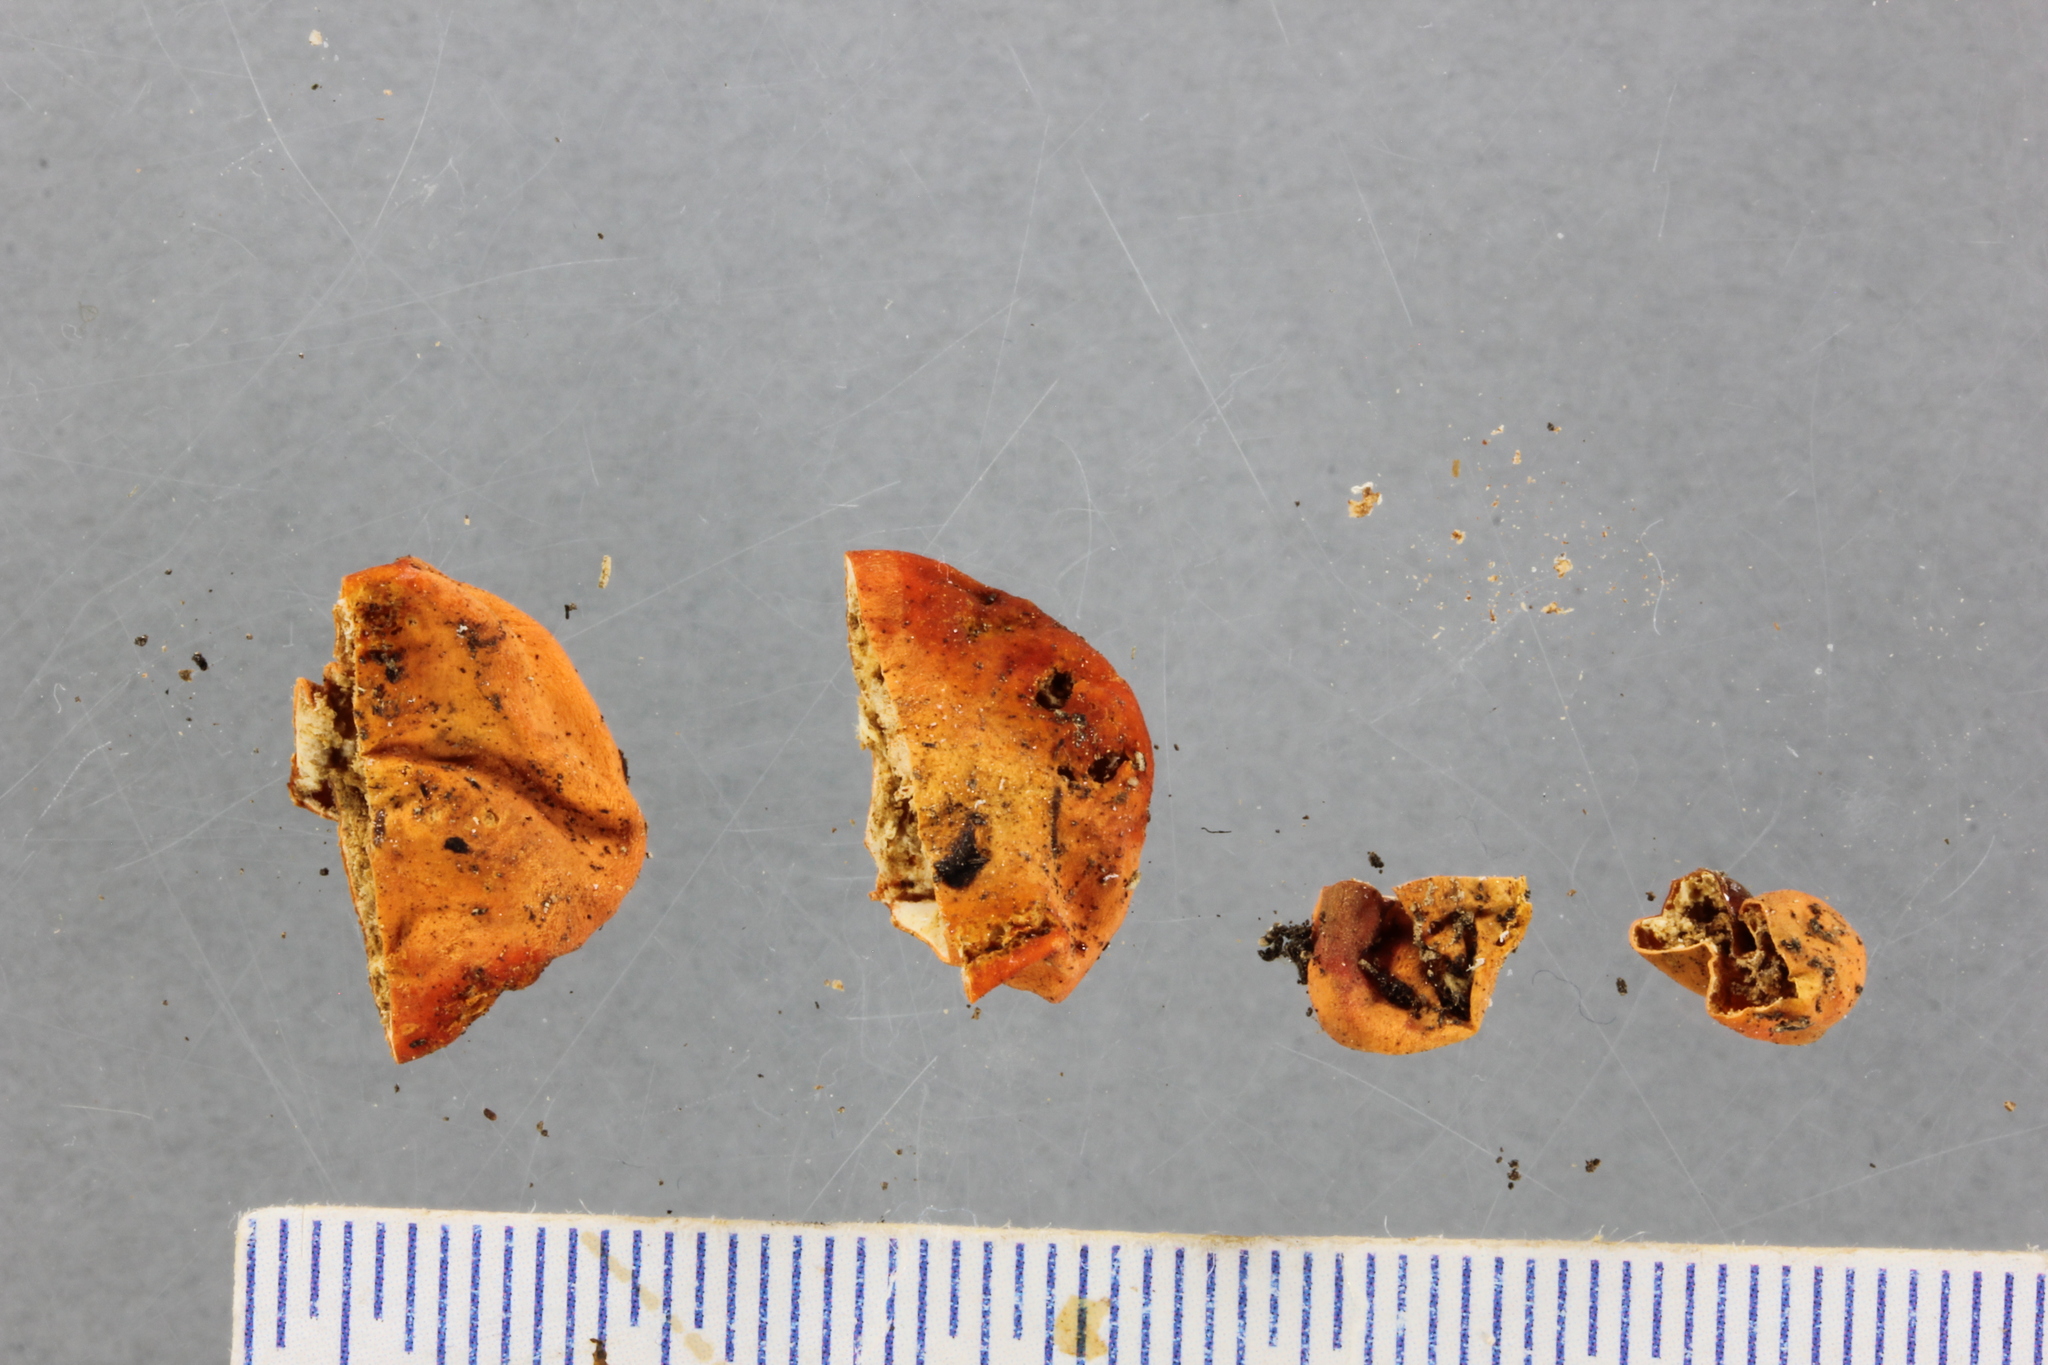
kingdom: Fungi
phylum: Ascomycota
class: Pezizomycetes
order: Pezizales
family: Pyronemataceae
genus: Paurocotylis
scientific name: Paurocotylis pila
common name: Scarlet berry truffle
